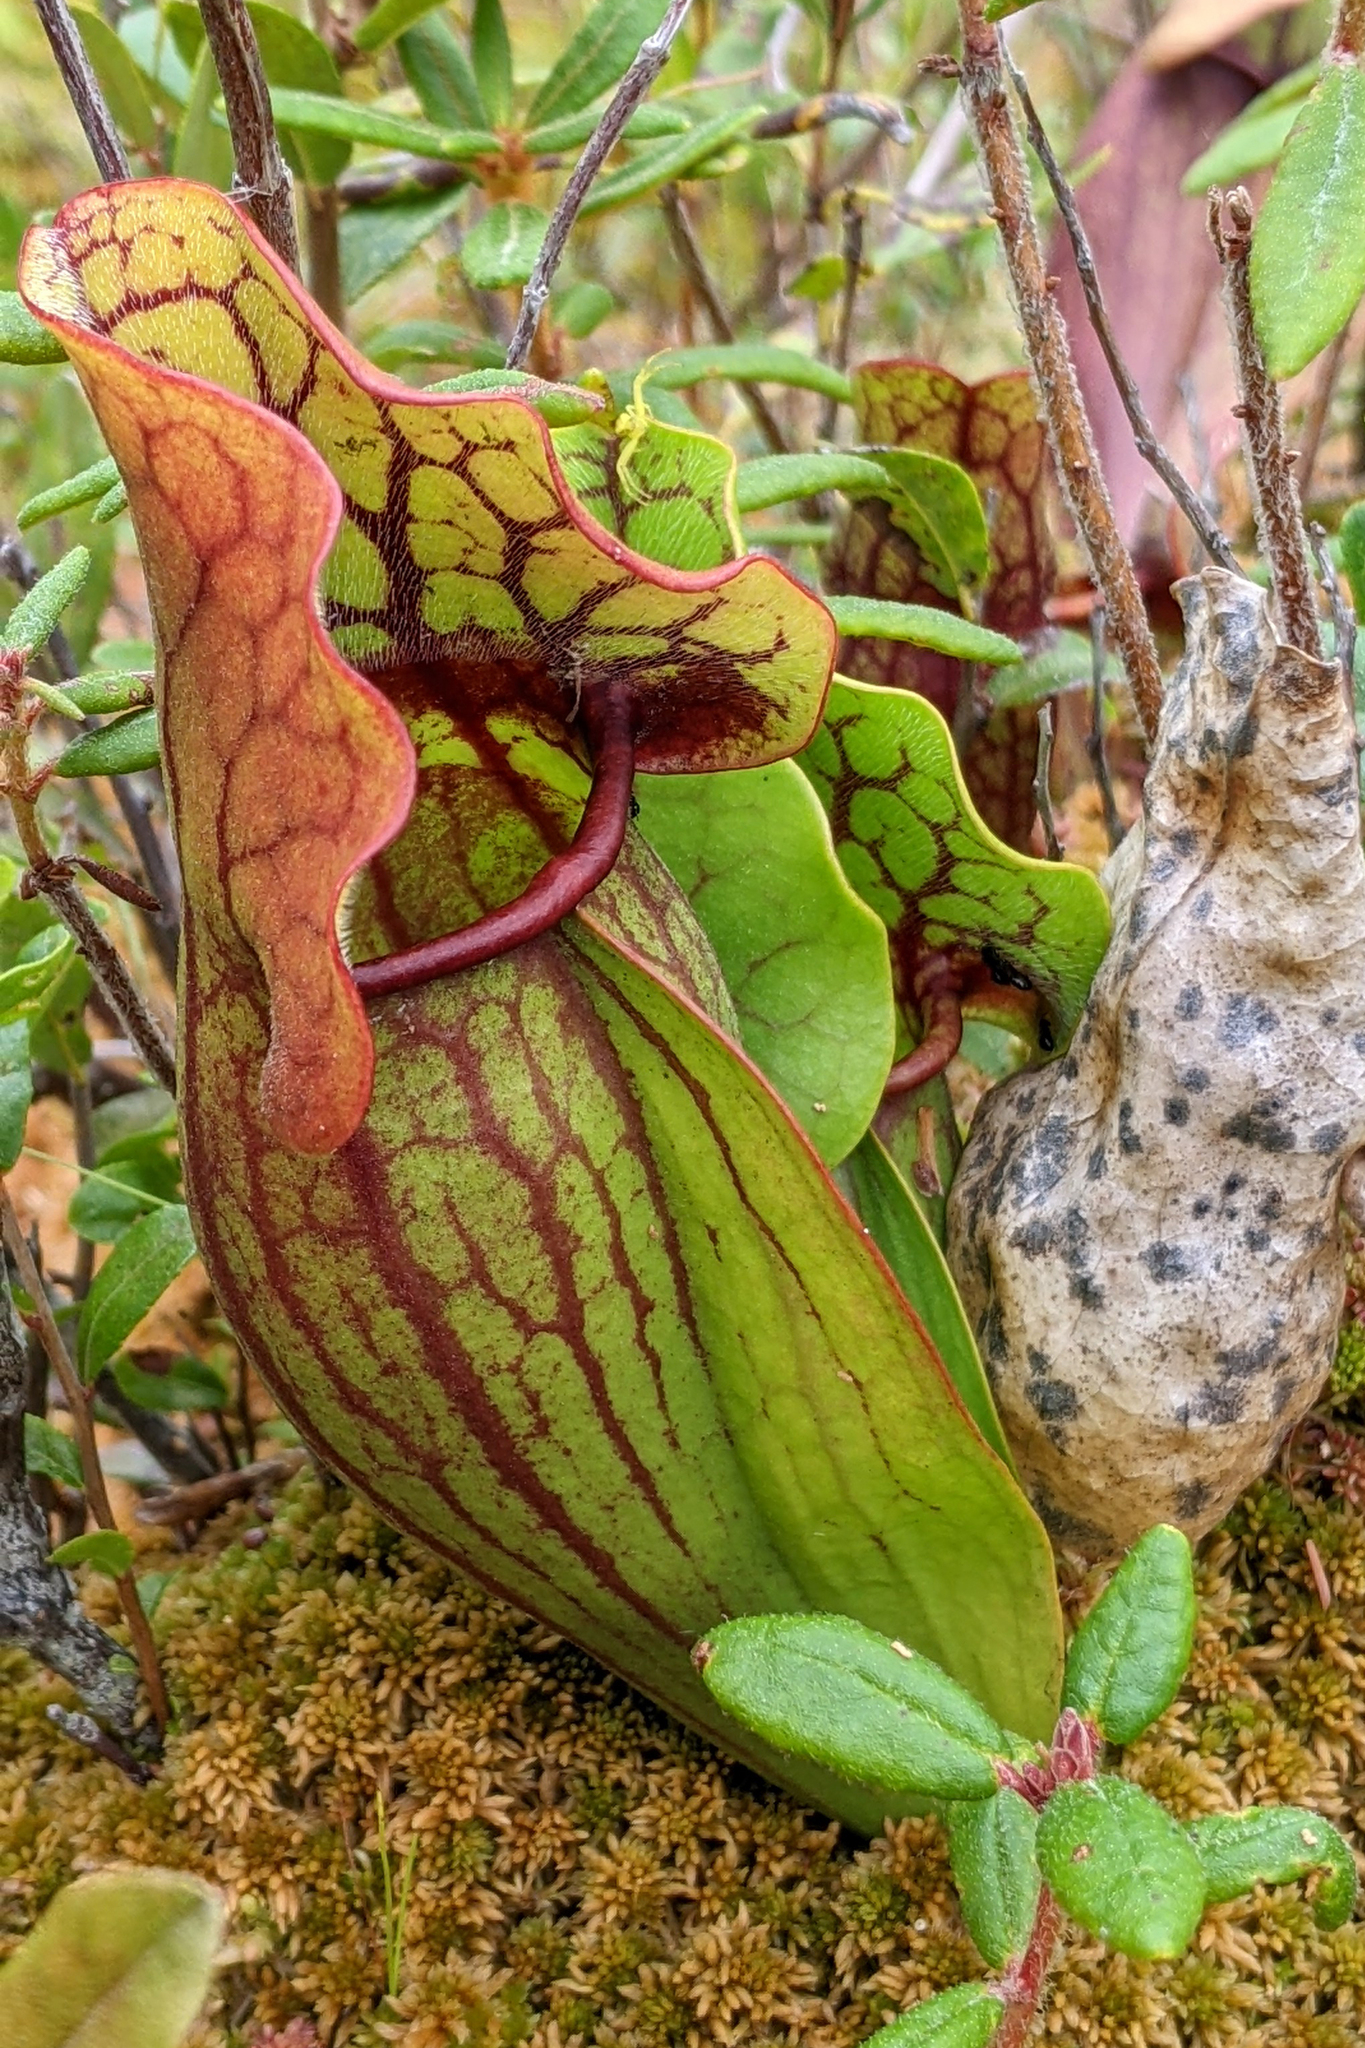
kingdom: Plantae
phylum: Tracheophyta
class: Magnoliopsida
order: Ericales
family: Sarraceniaceae
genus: Sarracenia
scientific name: Sarracenia purpurea
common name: Pitcherplant
